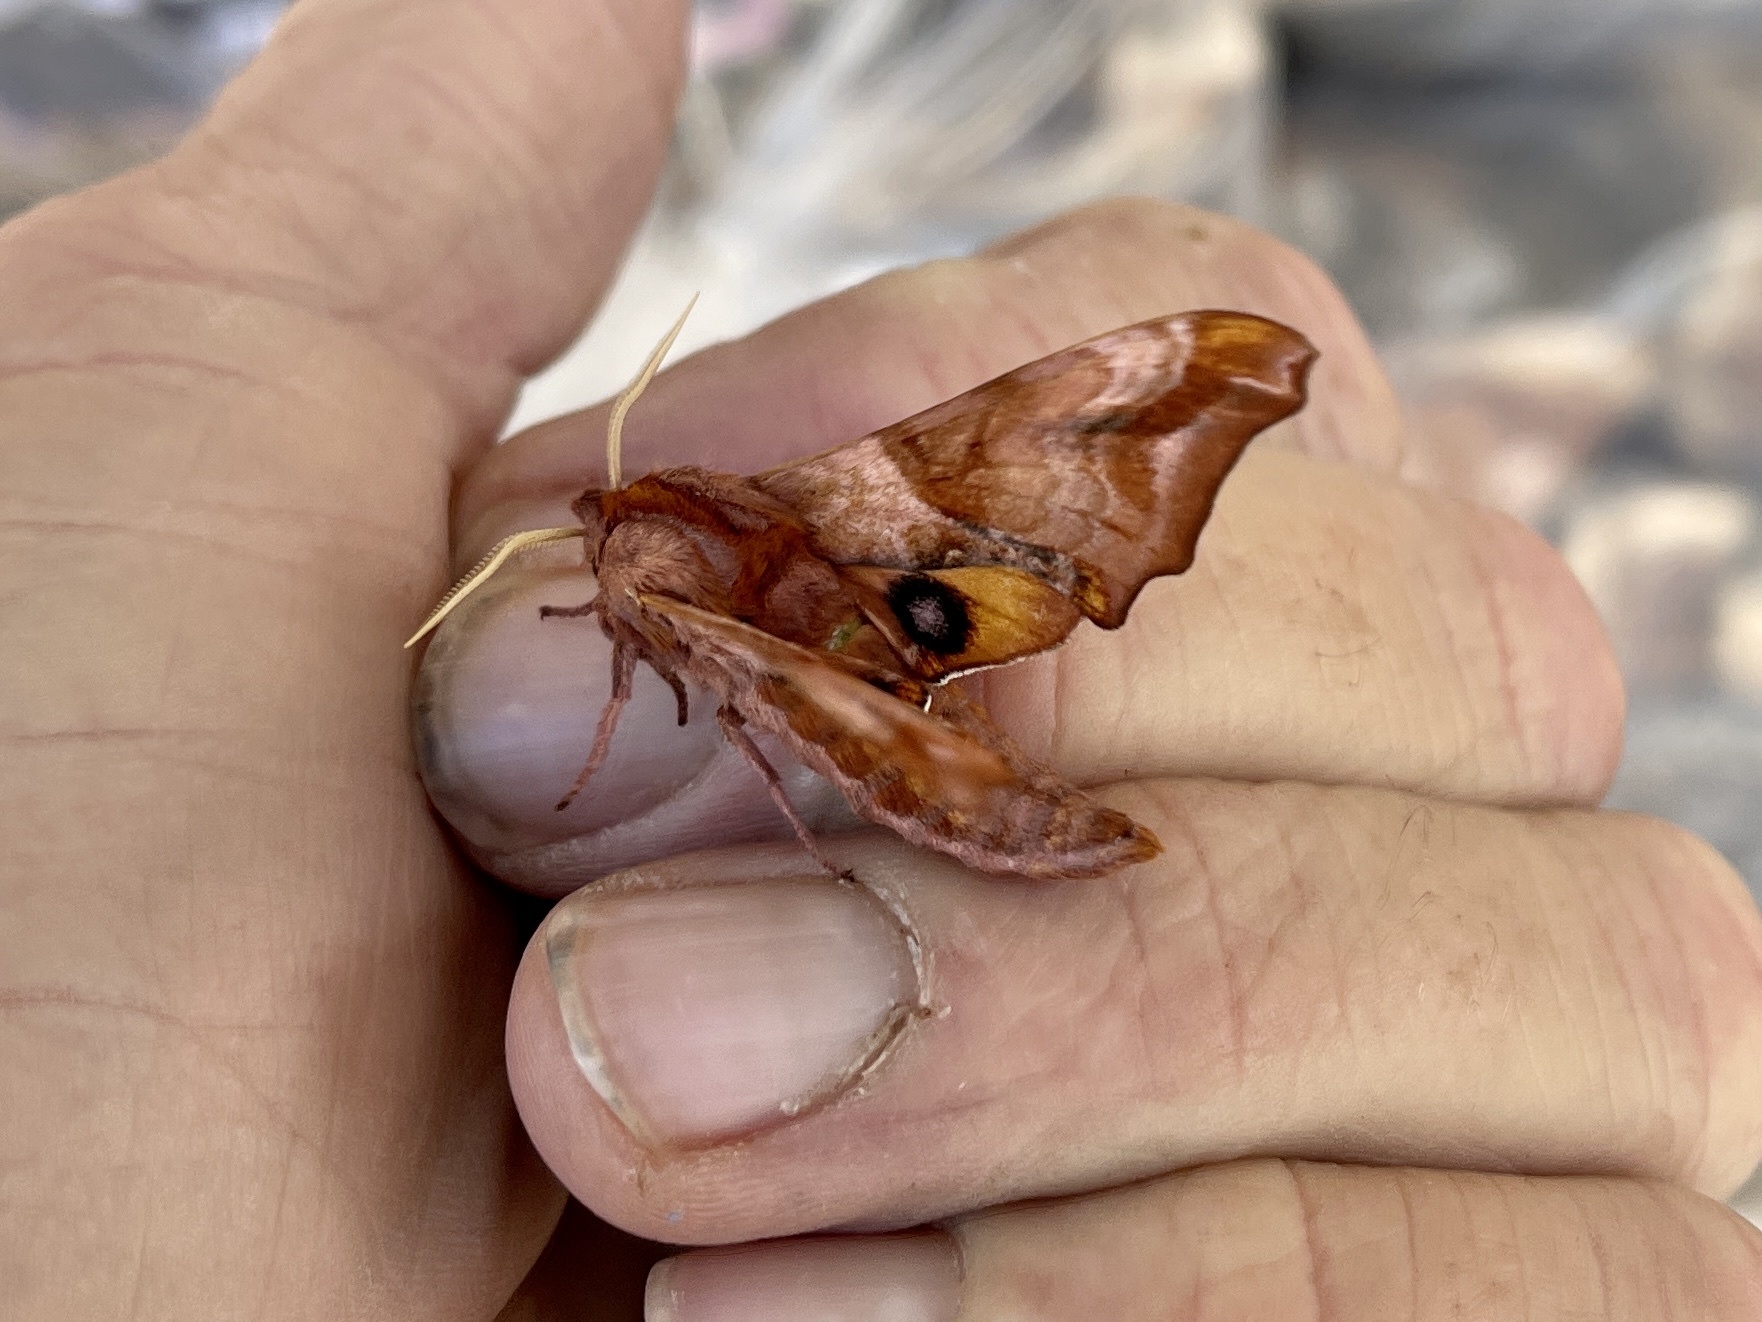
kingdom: Animalia
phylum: Arthropoda
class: Insecta
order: Lepidoptera
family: Sphingidae
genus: Paonias
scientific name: Paonias myops
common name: Small-eyed sphinx
